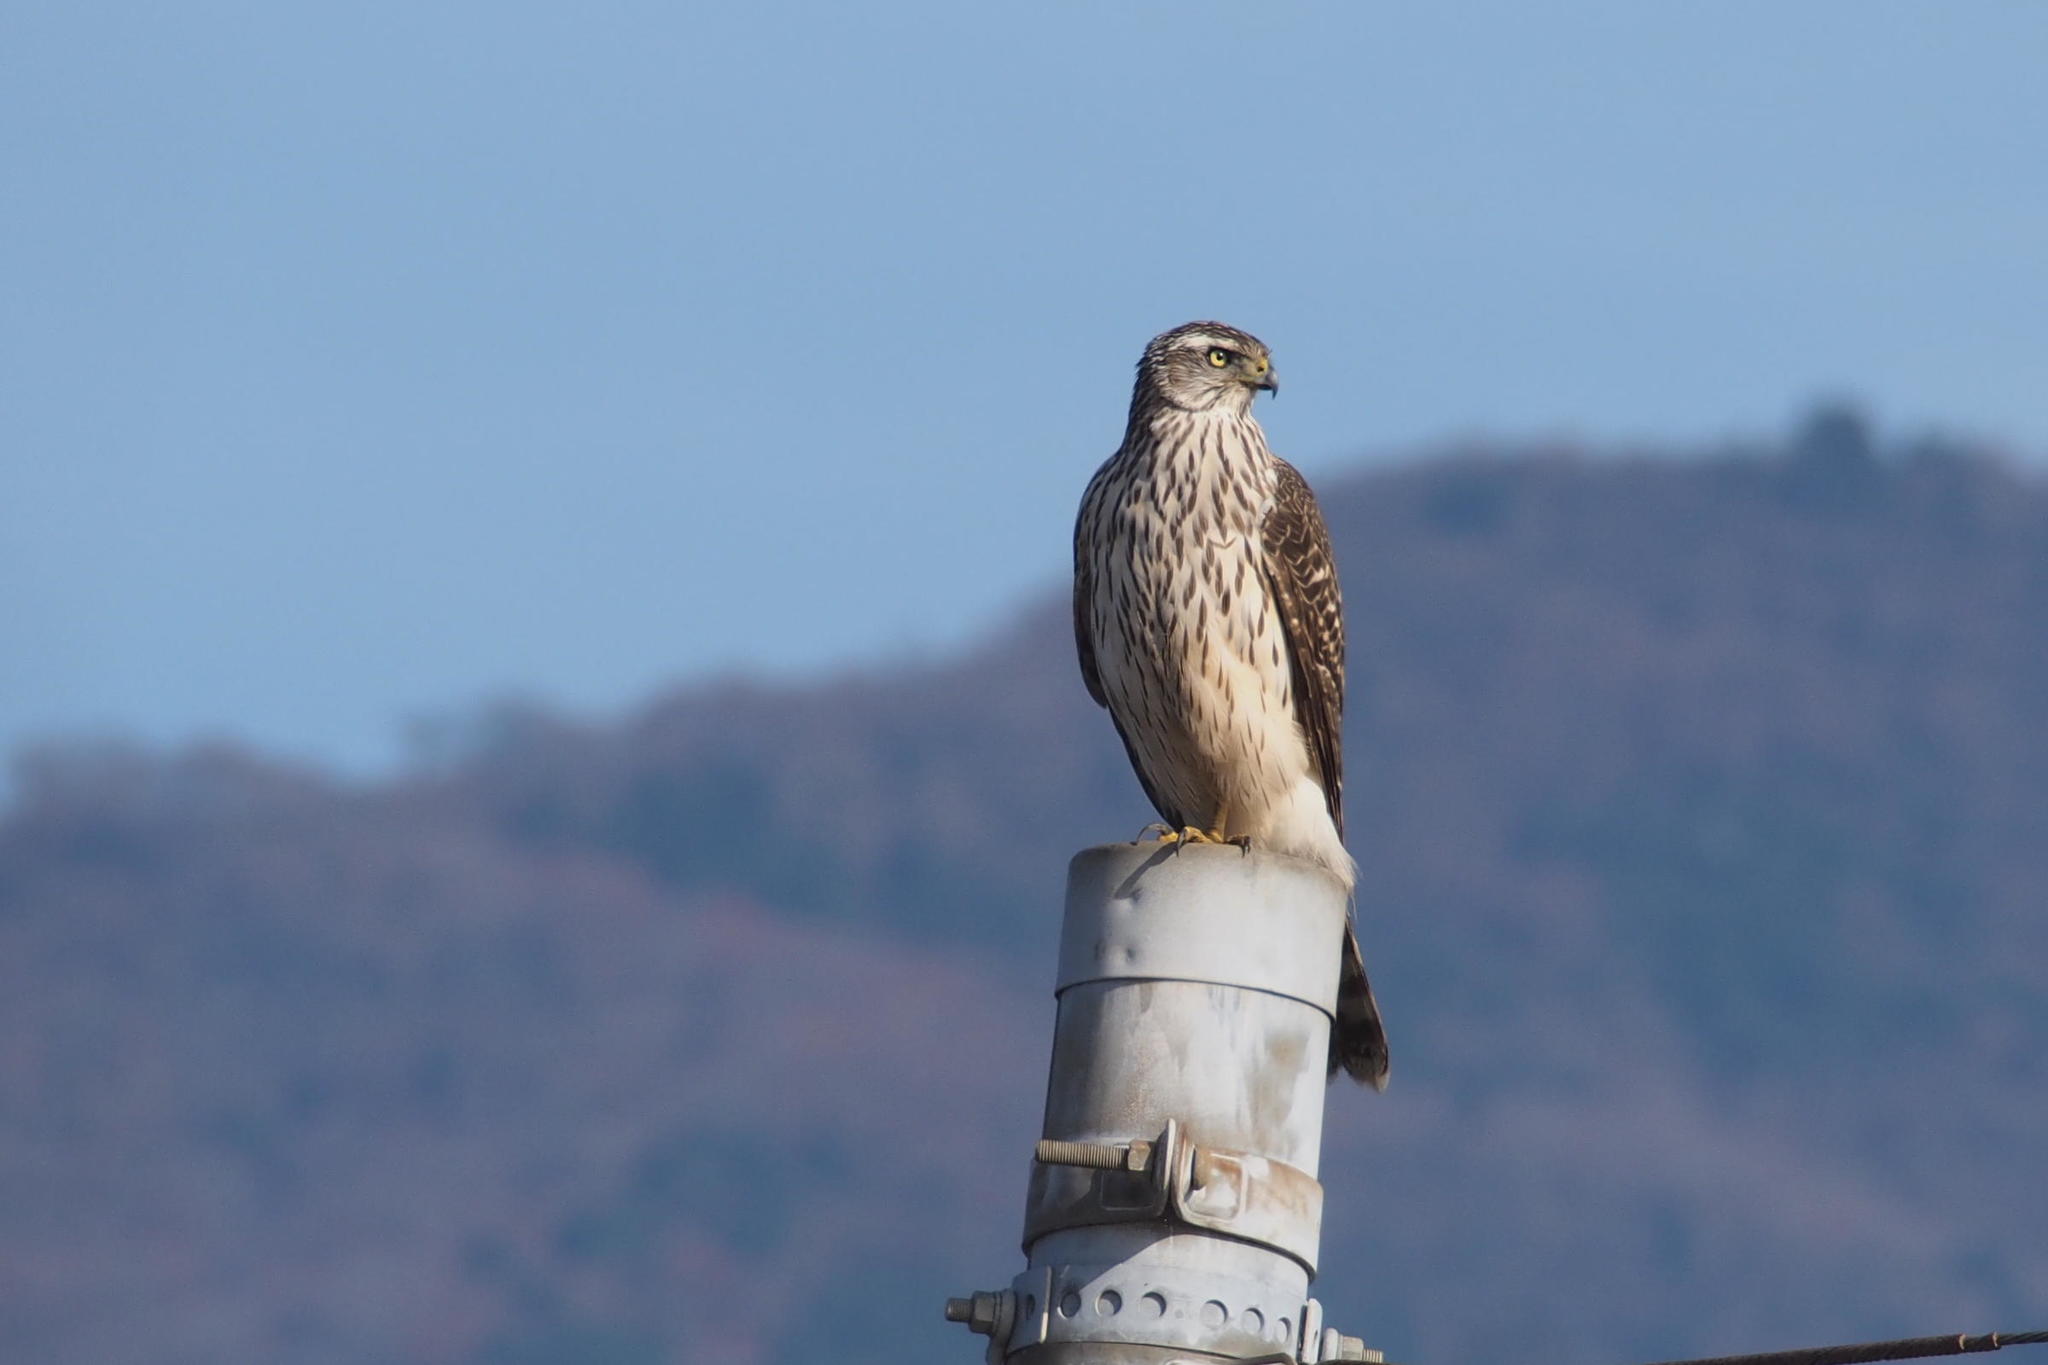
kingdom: Animalia
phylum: Chordata
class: Aves
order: Accipitriformes
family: Accipitridae
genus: Accipiter
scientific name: Accipiter gentilis
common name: Northern goshawk
